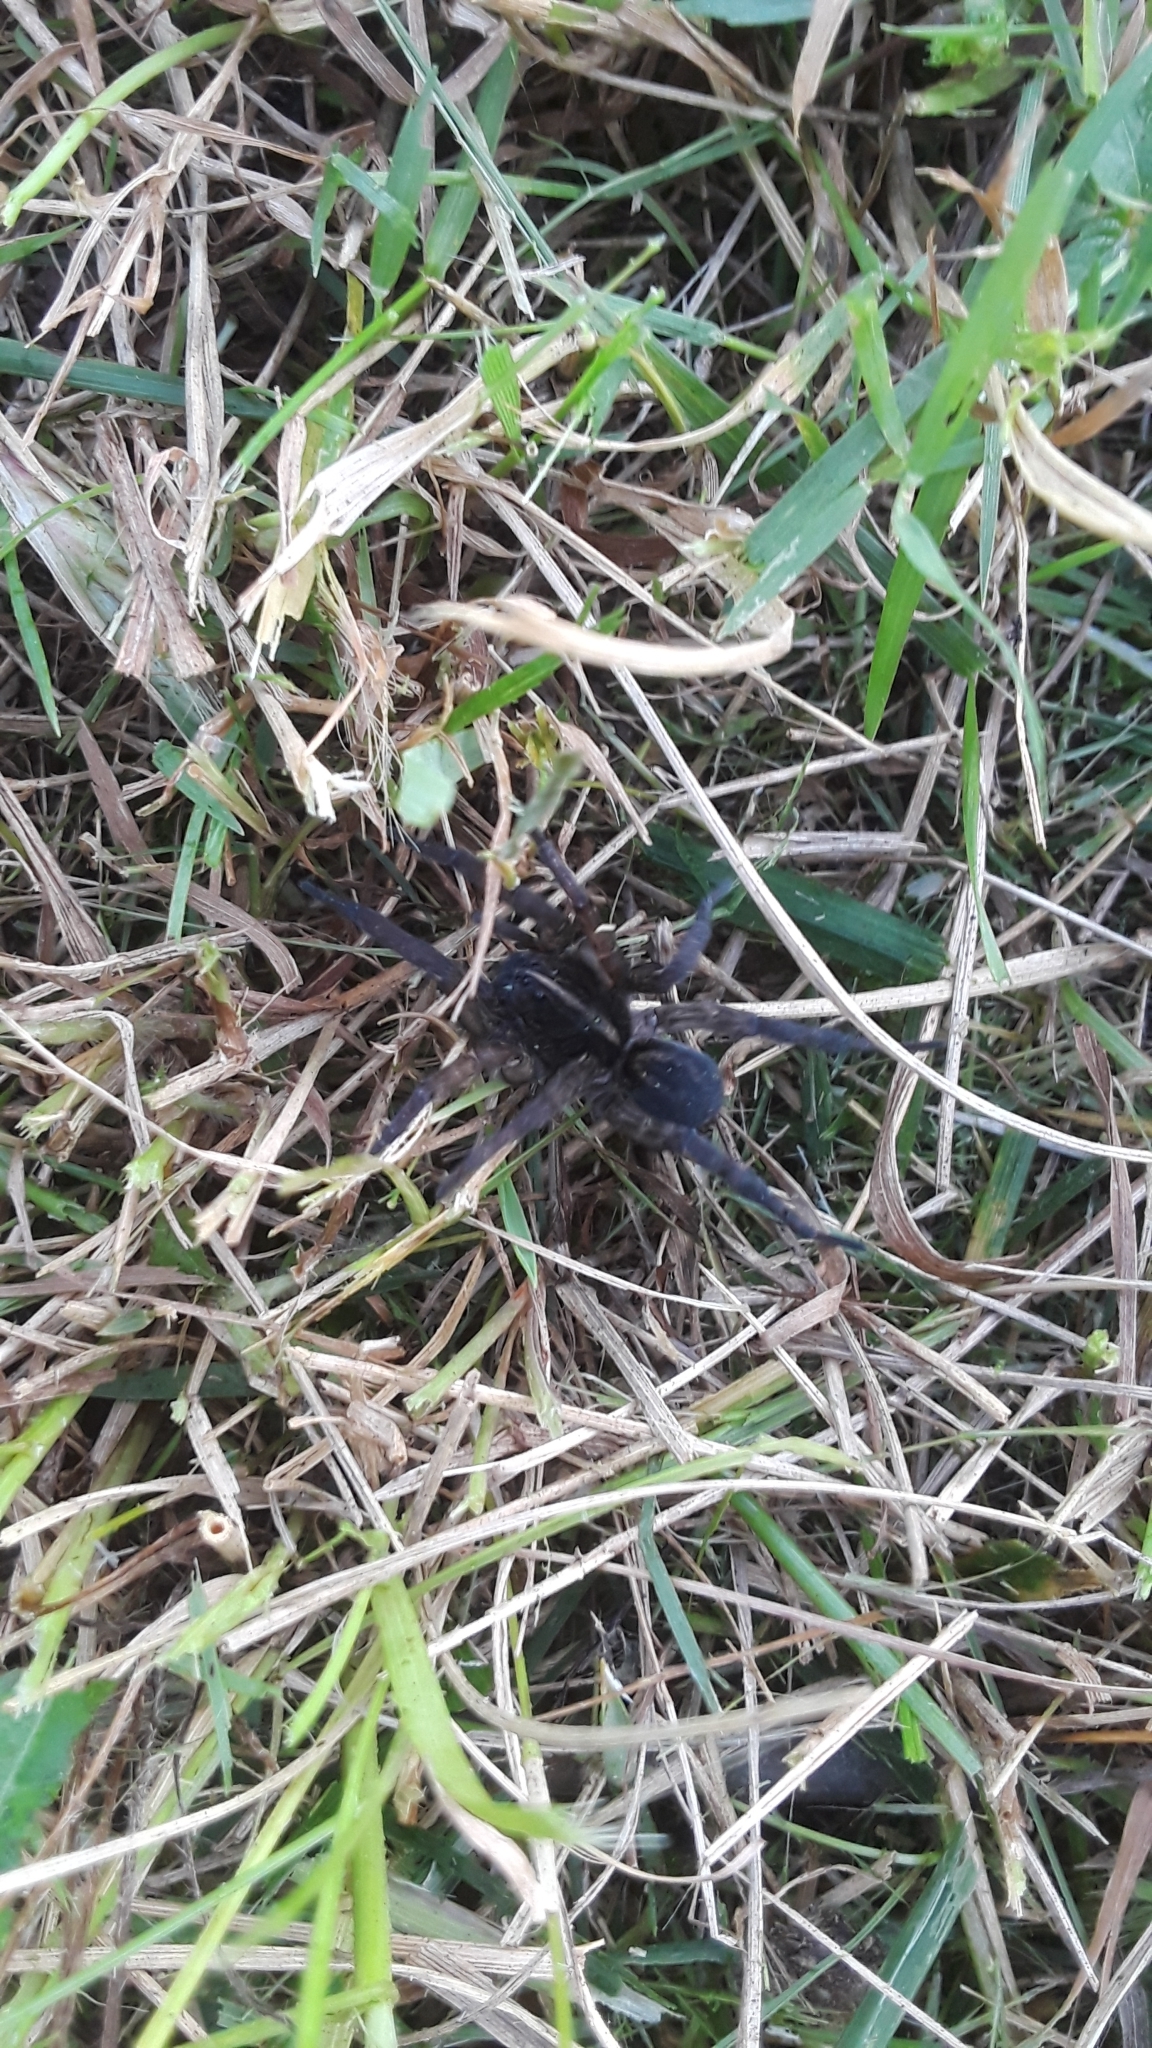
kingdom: Animalia
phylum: Arthropoda
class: Arachnida
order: Araneae
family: Lycosidae
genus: Tigrosa
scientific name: Tigrosa helluo
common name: Wetland giant wolf spider
